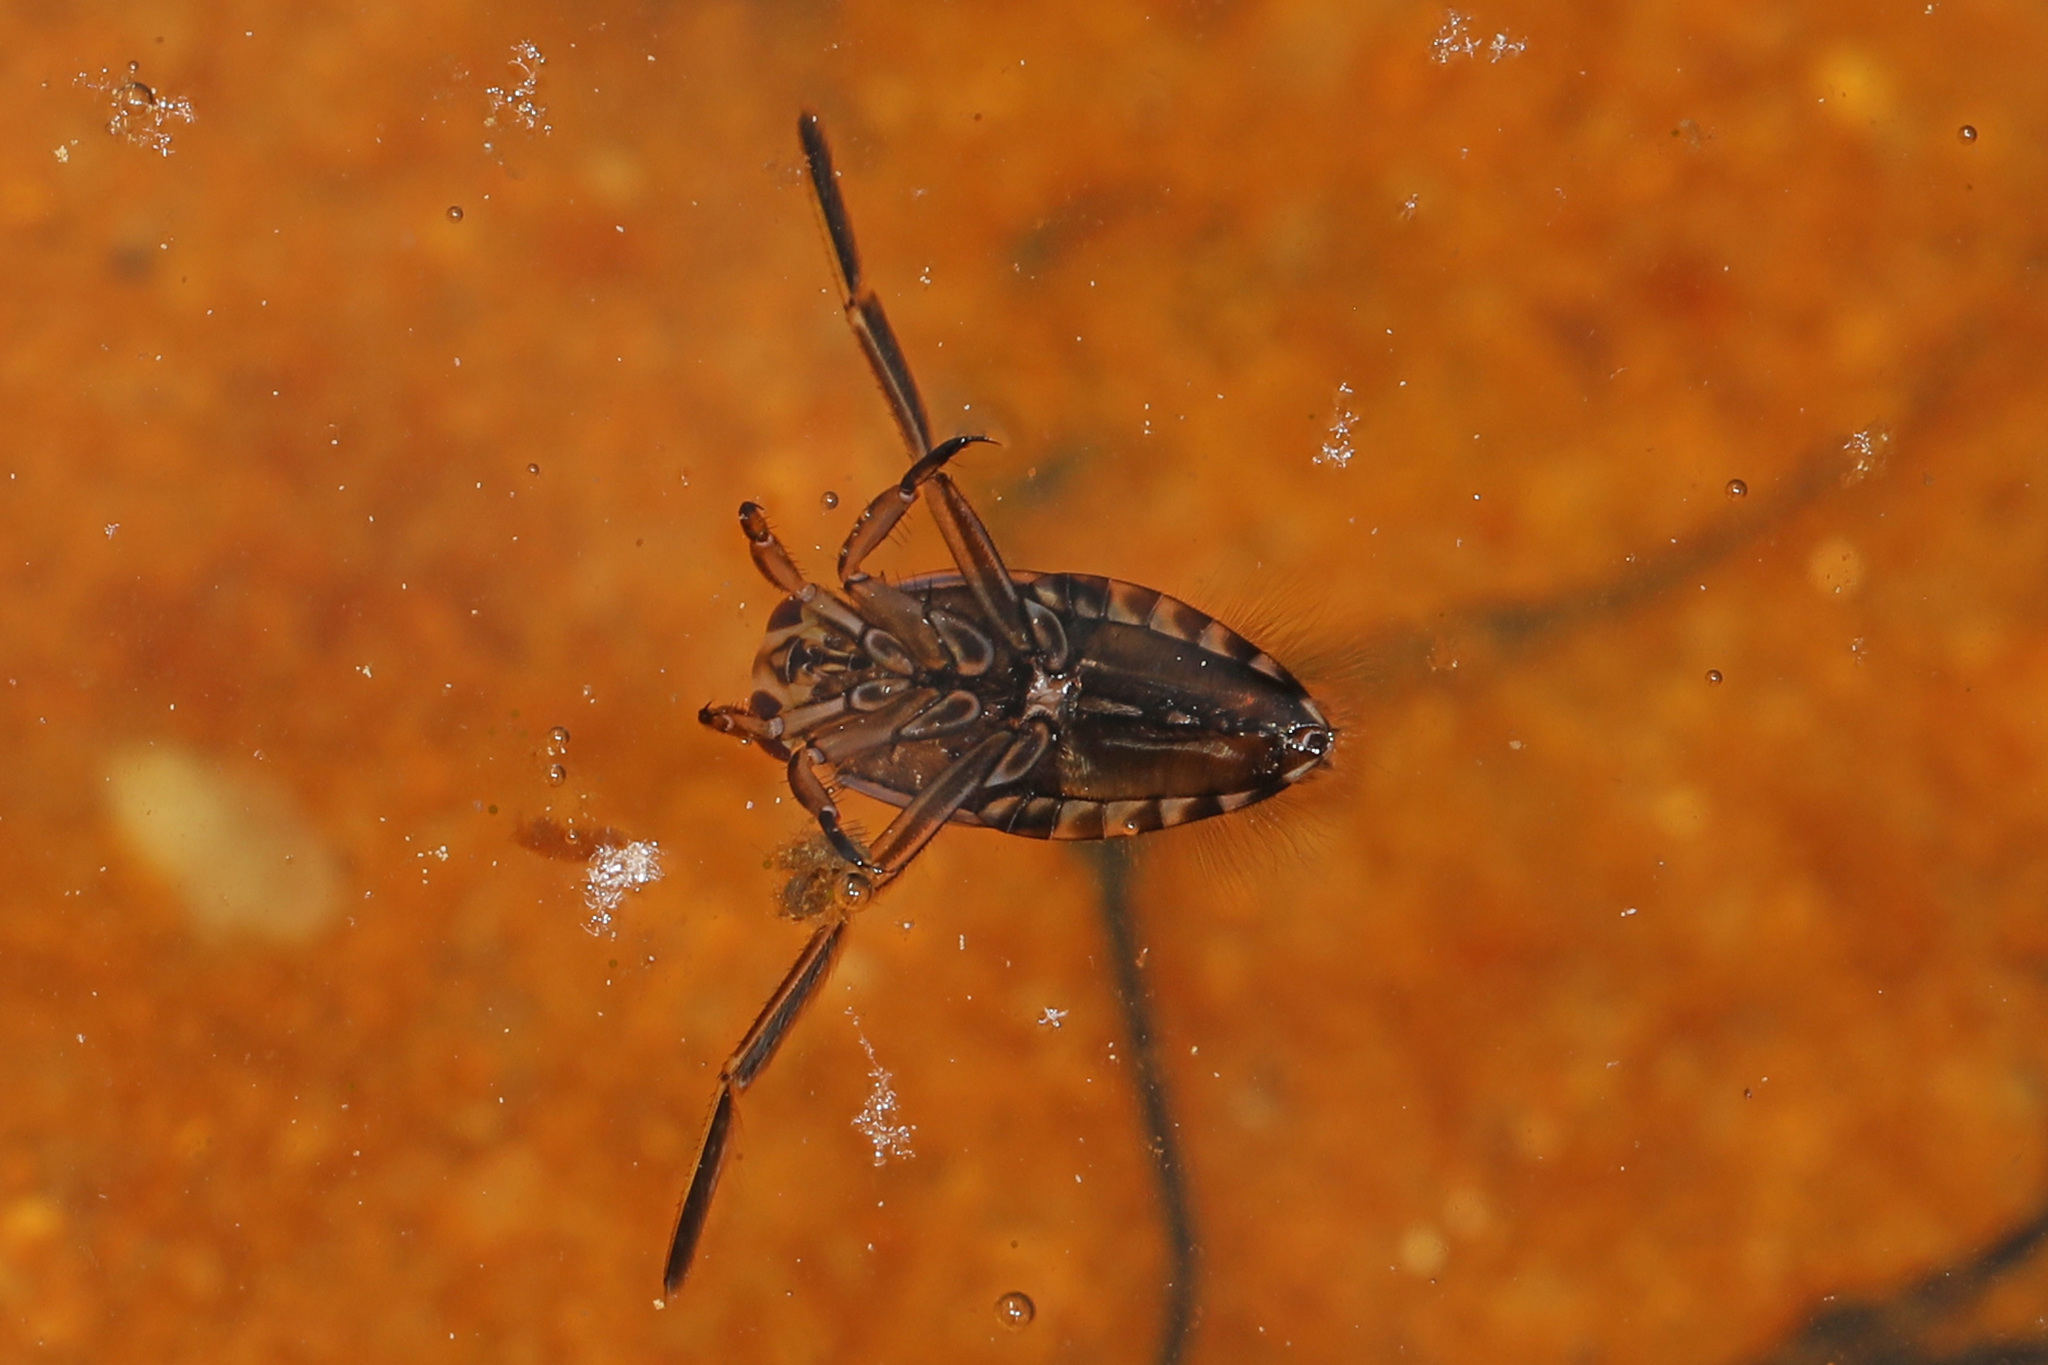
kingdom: Animalia
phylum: Arthropoda
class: Insecta
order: Hemiptera
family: Notonectidae
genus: Notonecta
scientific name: Notonecta
